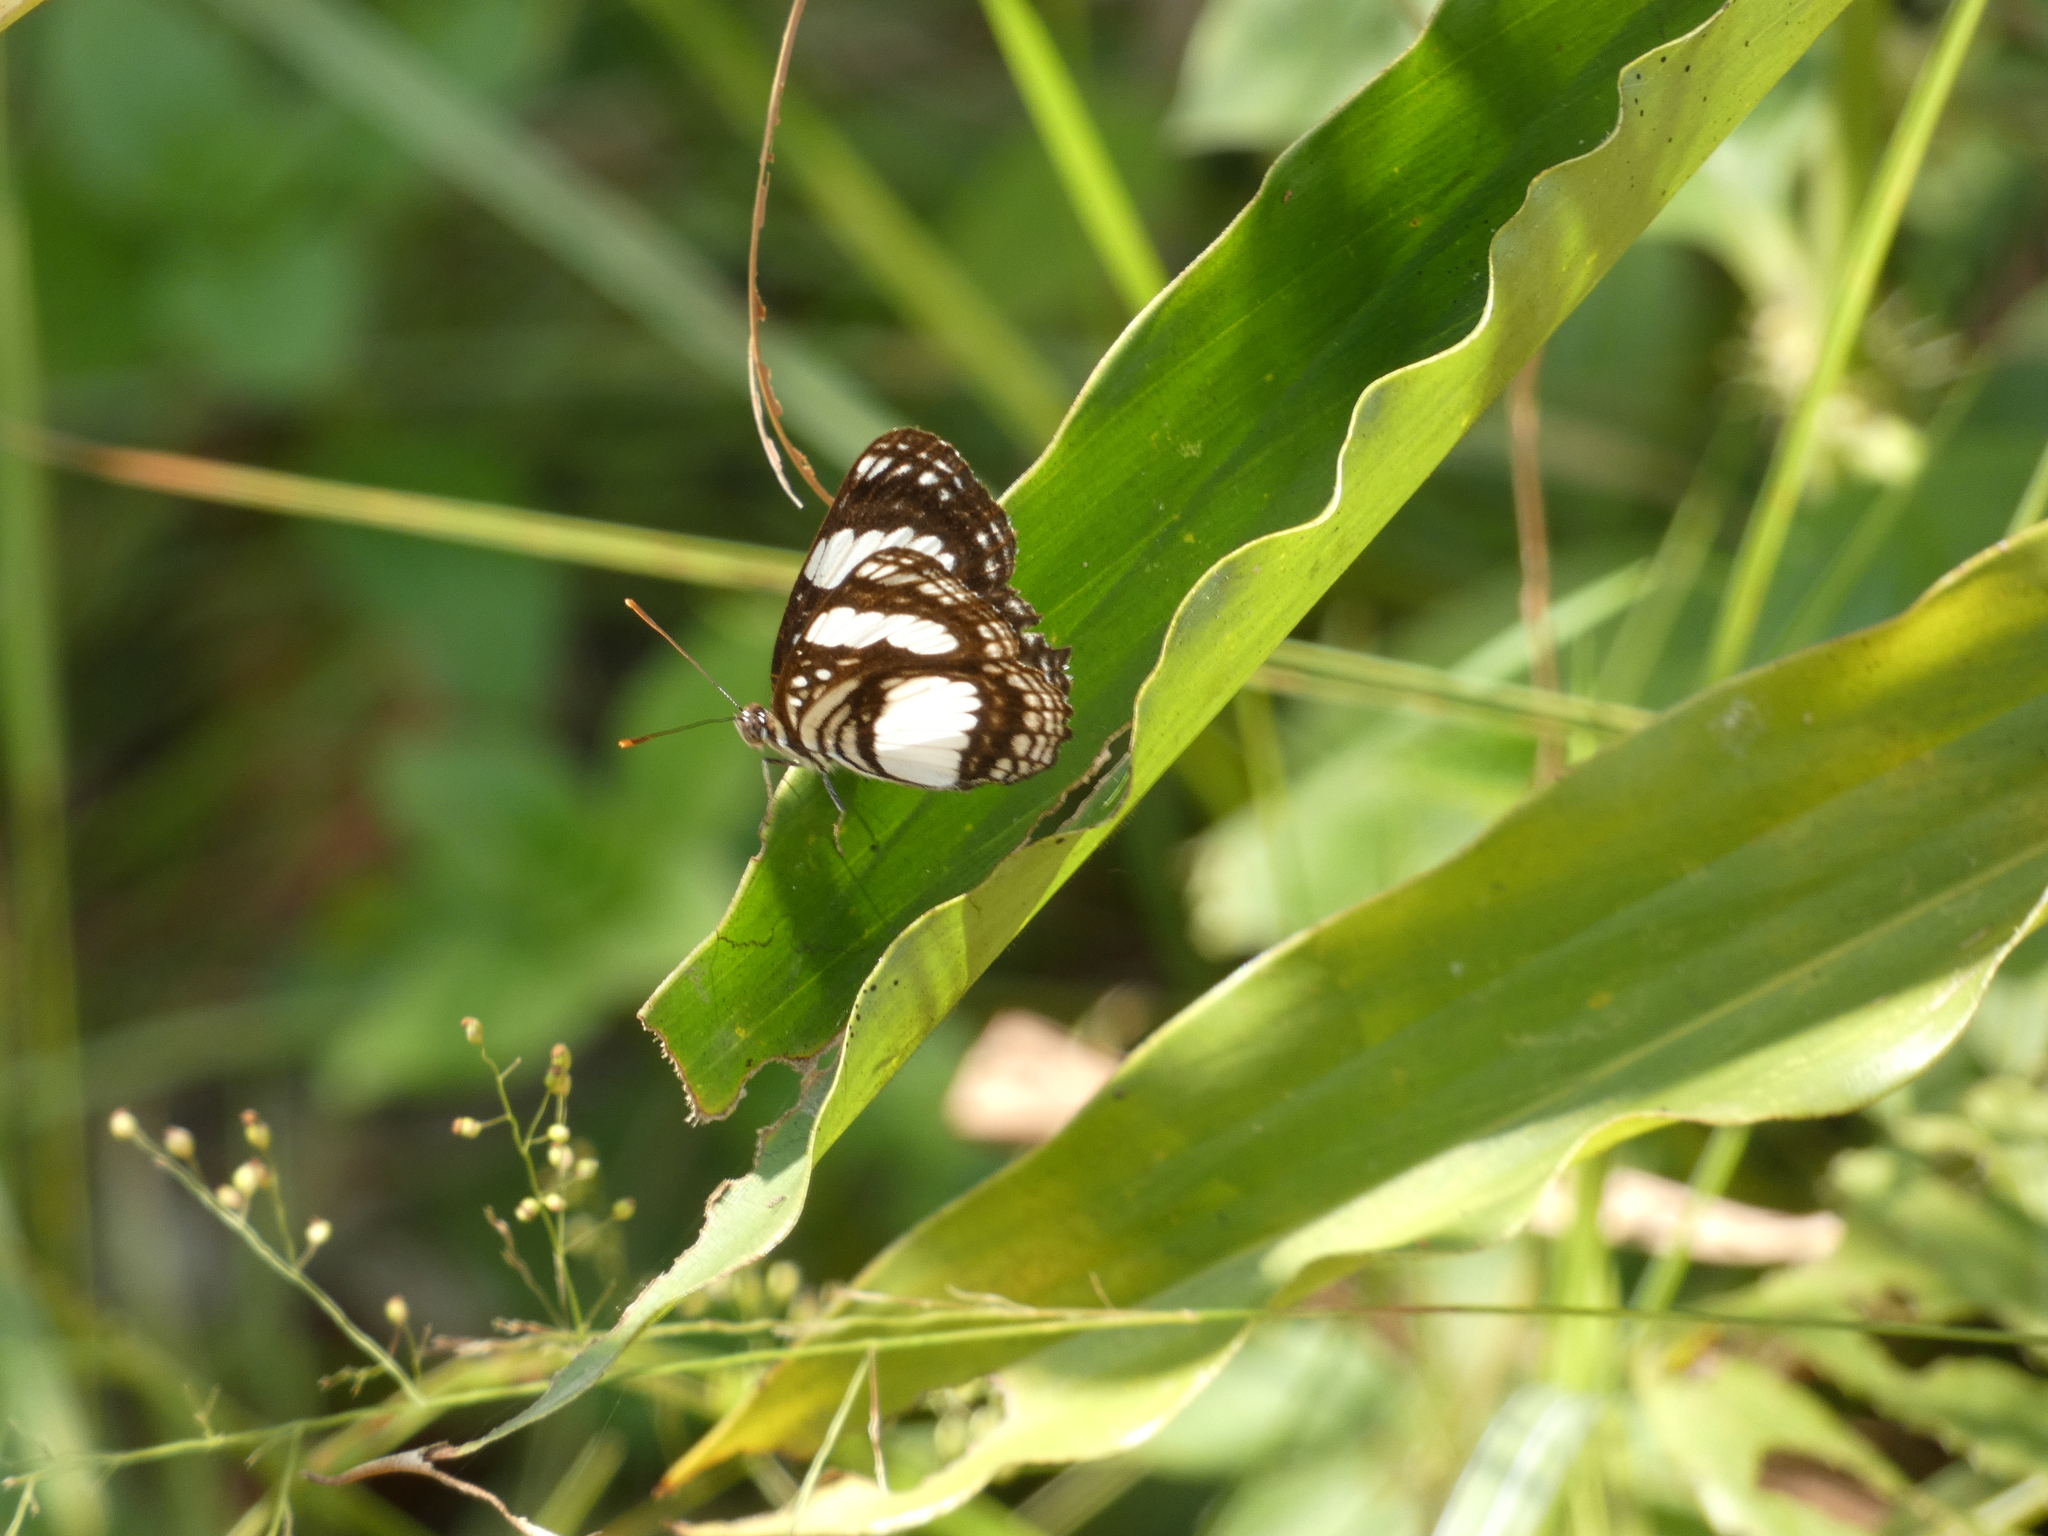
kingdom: Animalia
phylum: Arthropoda
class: Insecta
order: Lepidoptera
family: Nymphalidae
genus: Neptis
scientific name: Neptis morosa
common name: Savanna sailer
